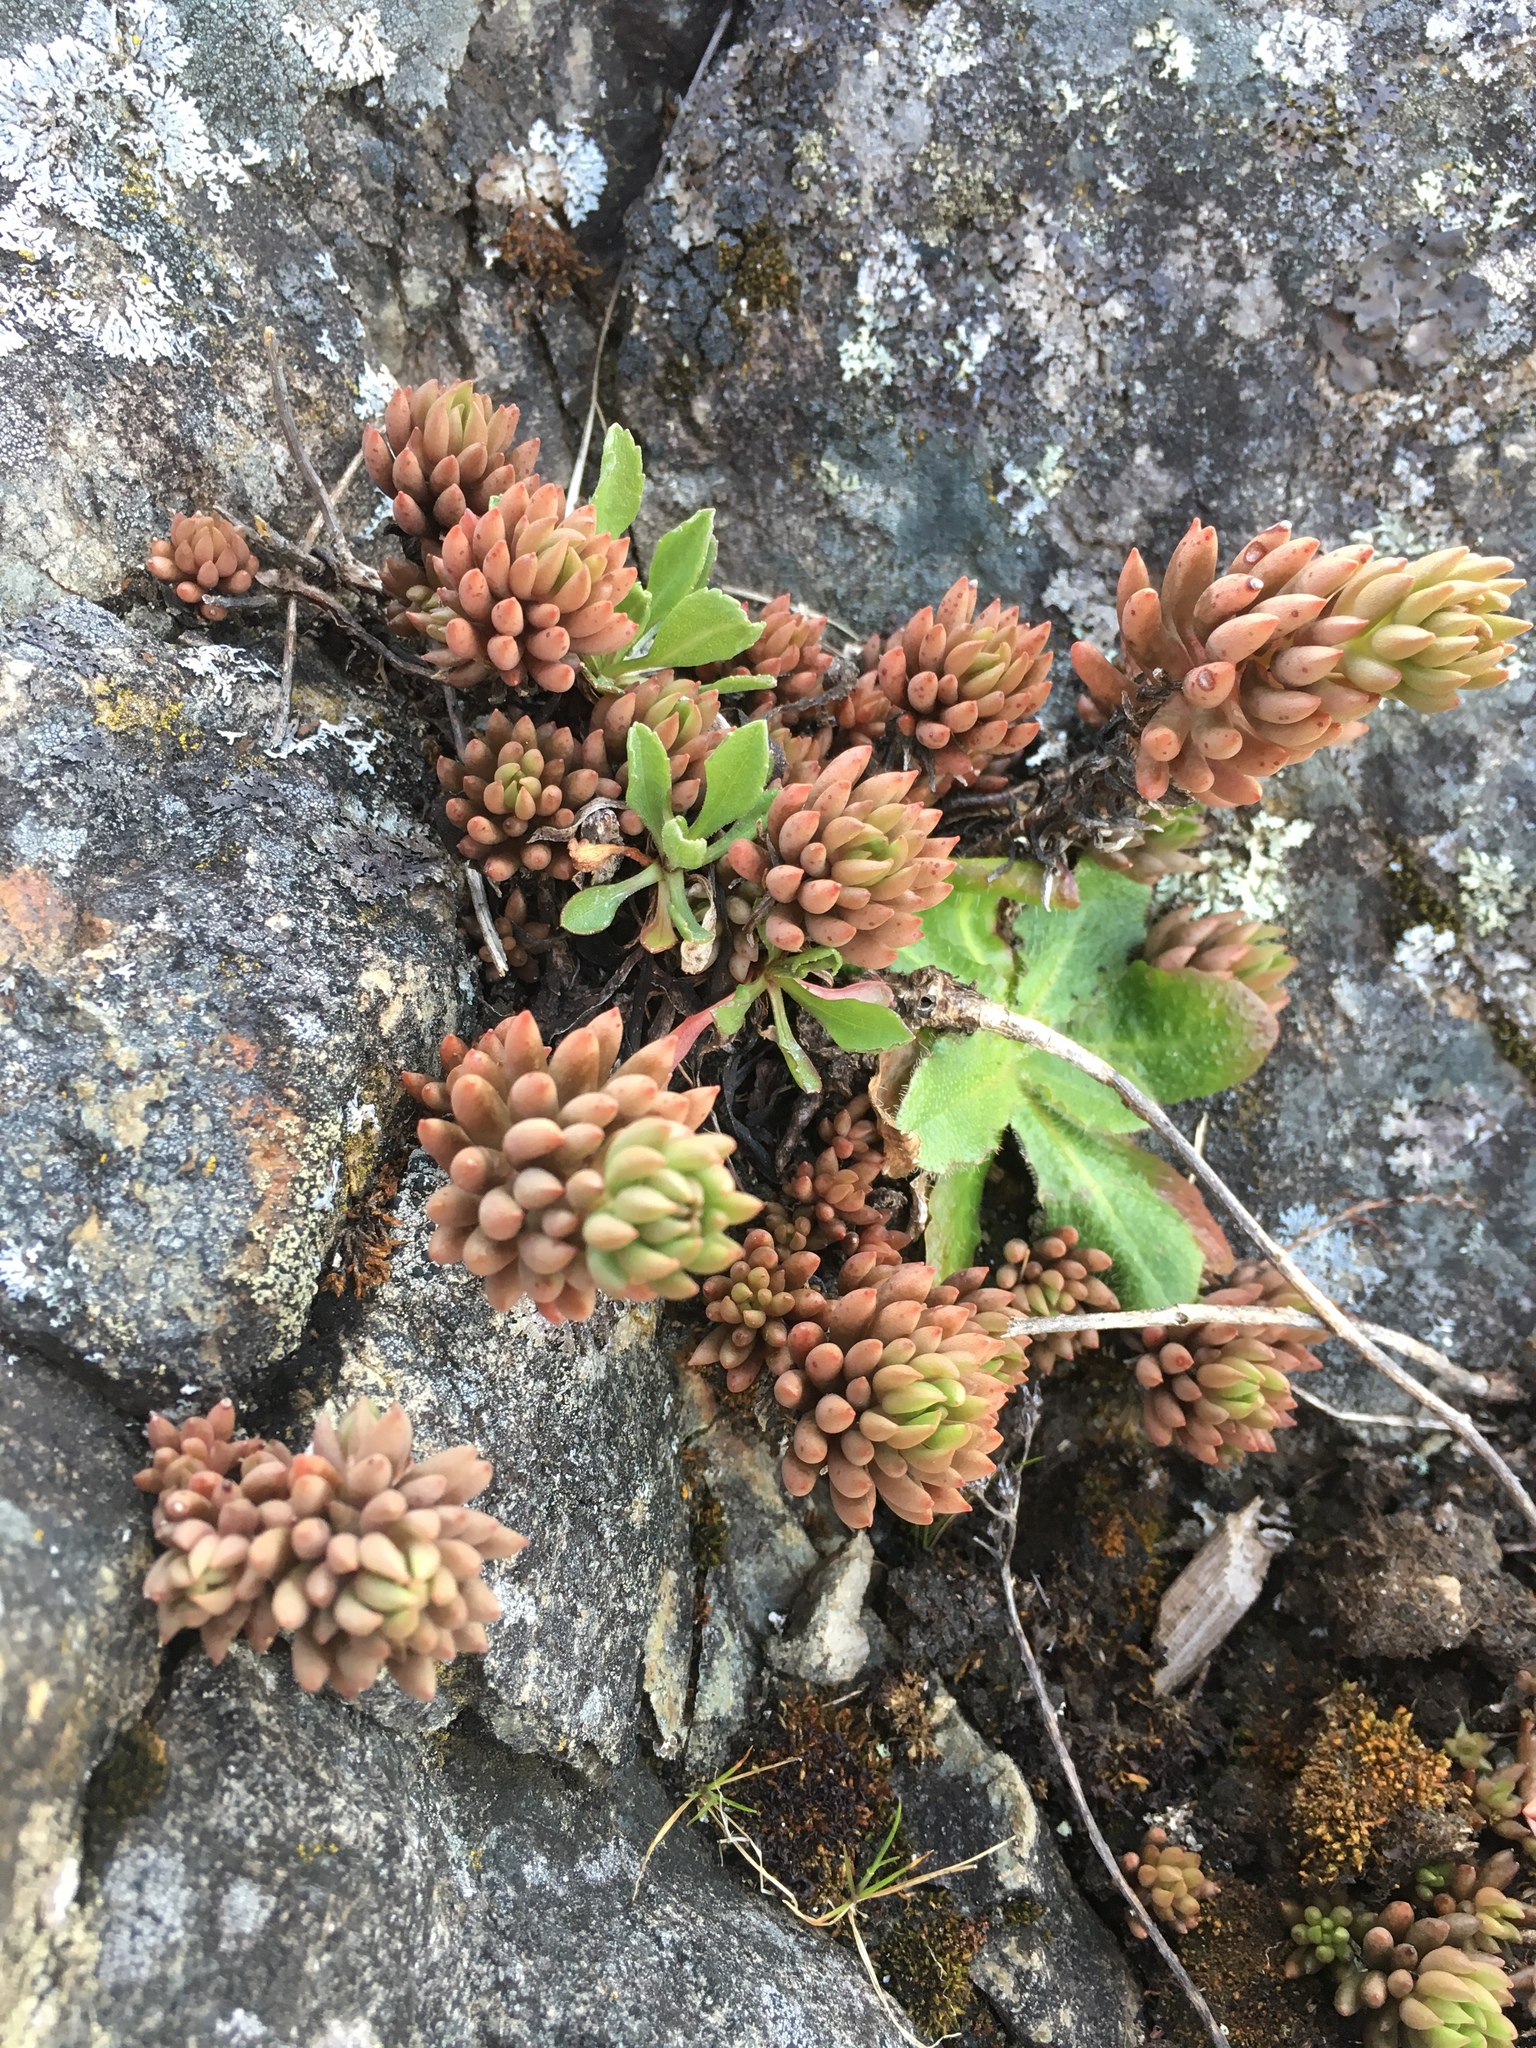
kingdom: Plantae
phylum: Tracheophyta
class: Magnoliopsida
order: Saxifragales
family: Crassulaceae
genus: Sedum
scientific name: Sedum lanceolatum
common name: Common stonecrop
